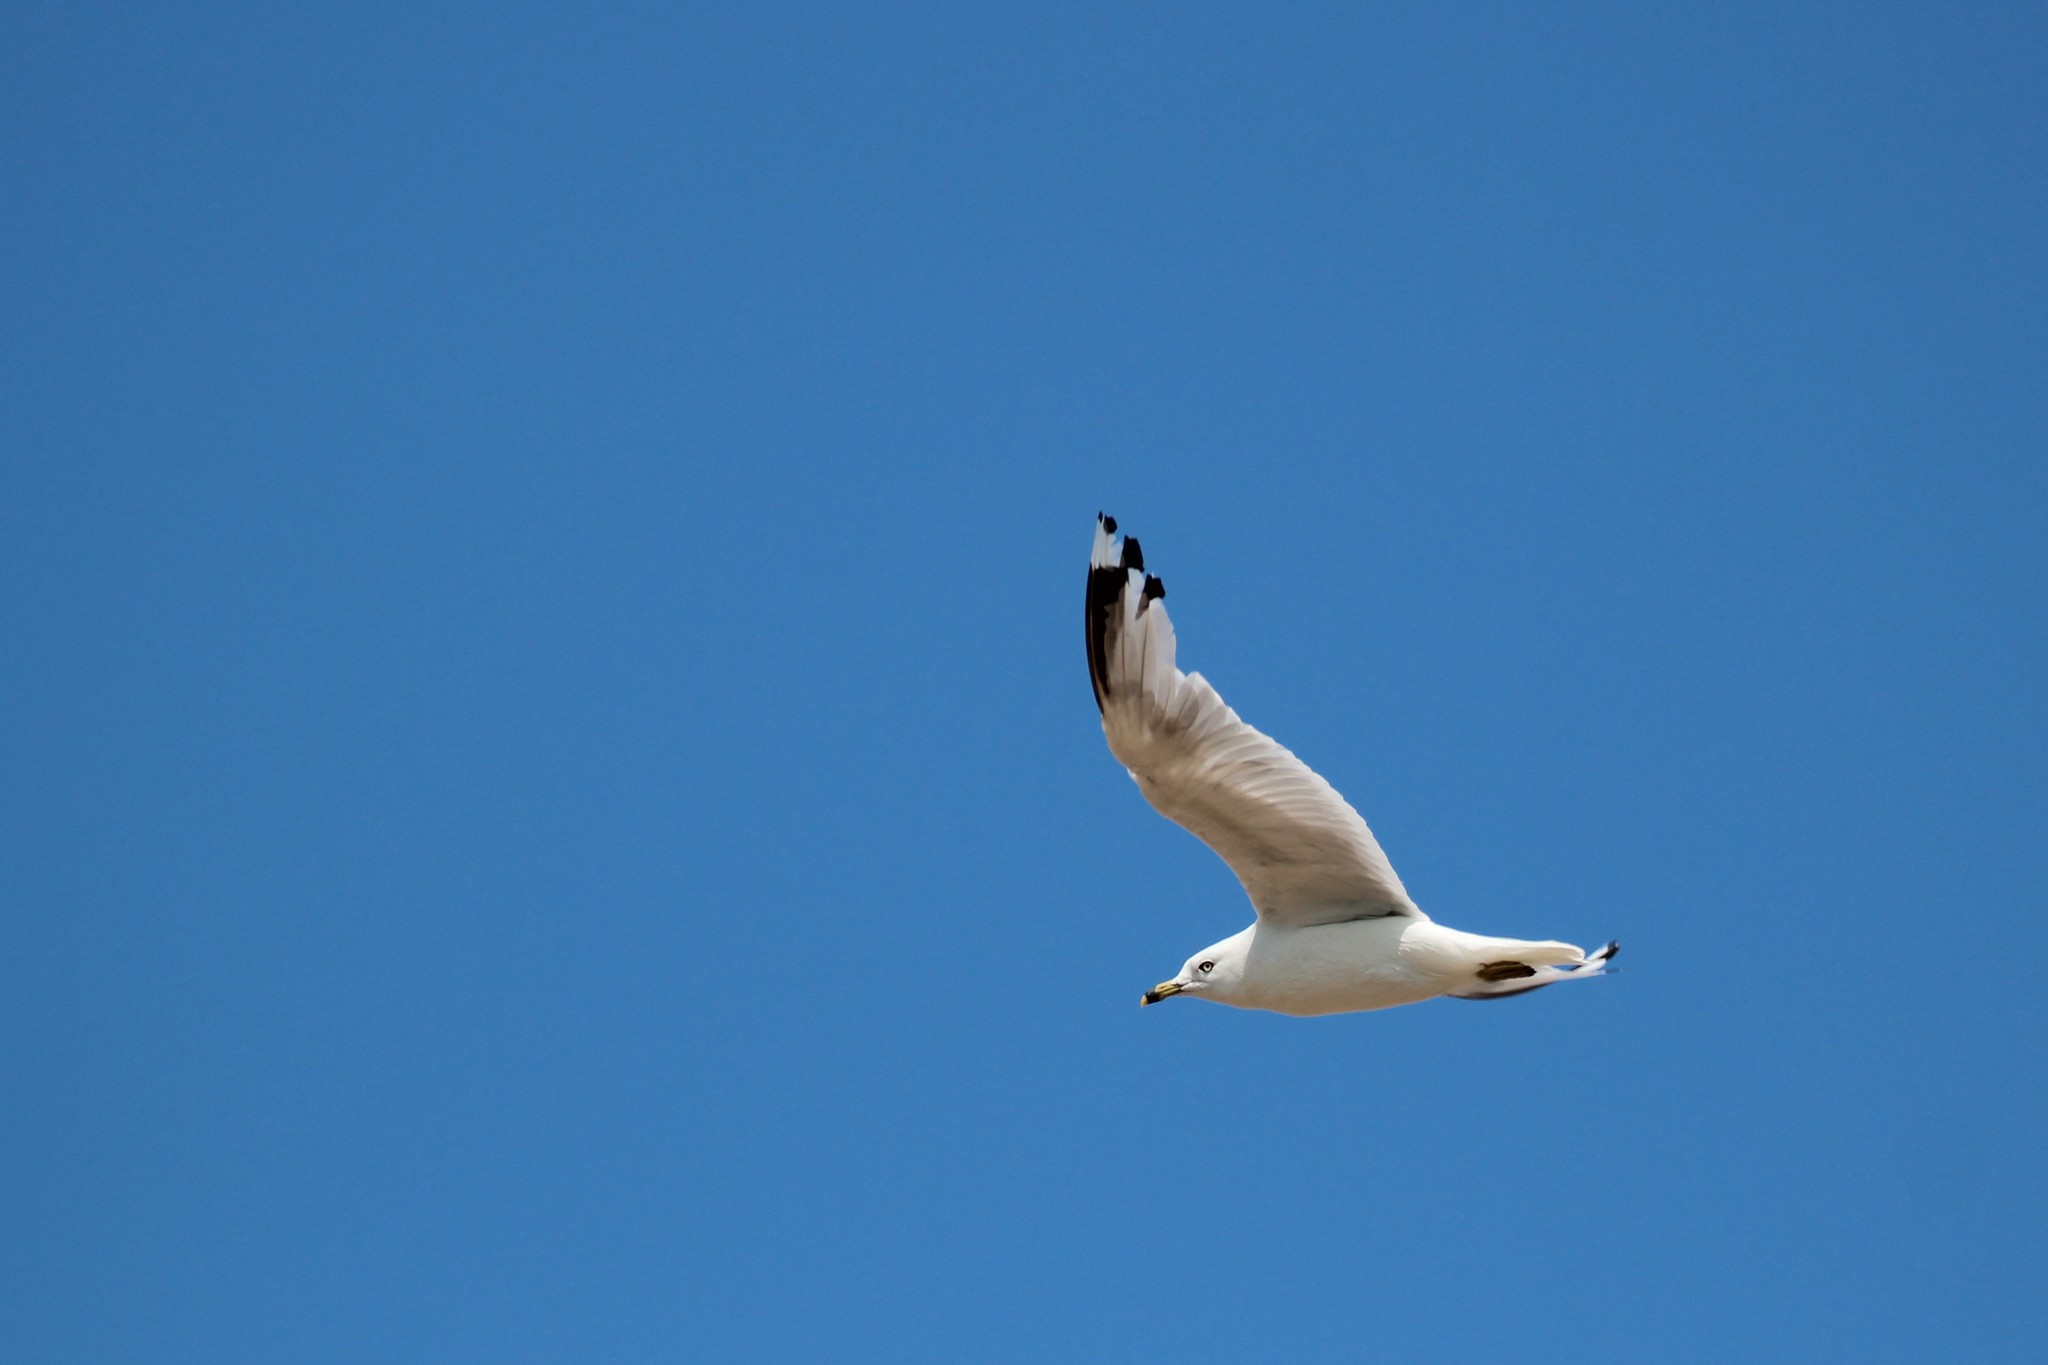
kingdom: Animalia
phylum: Chordata
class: Aves
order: Charadriiformes
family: Laridae
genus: Larus
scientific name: Larus delawarensis
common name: Ring-billed gull
